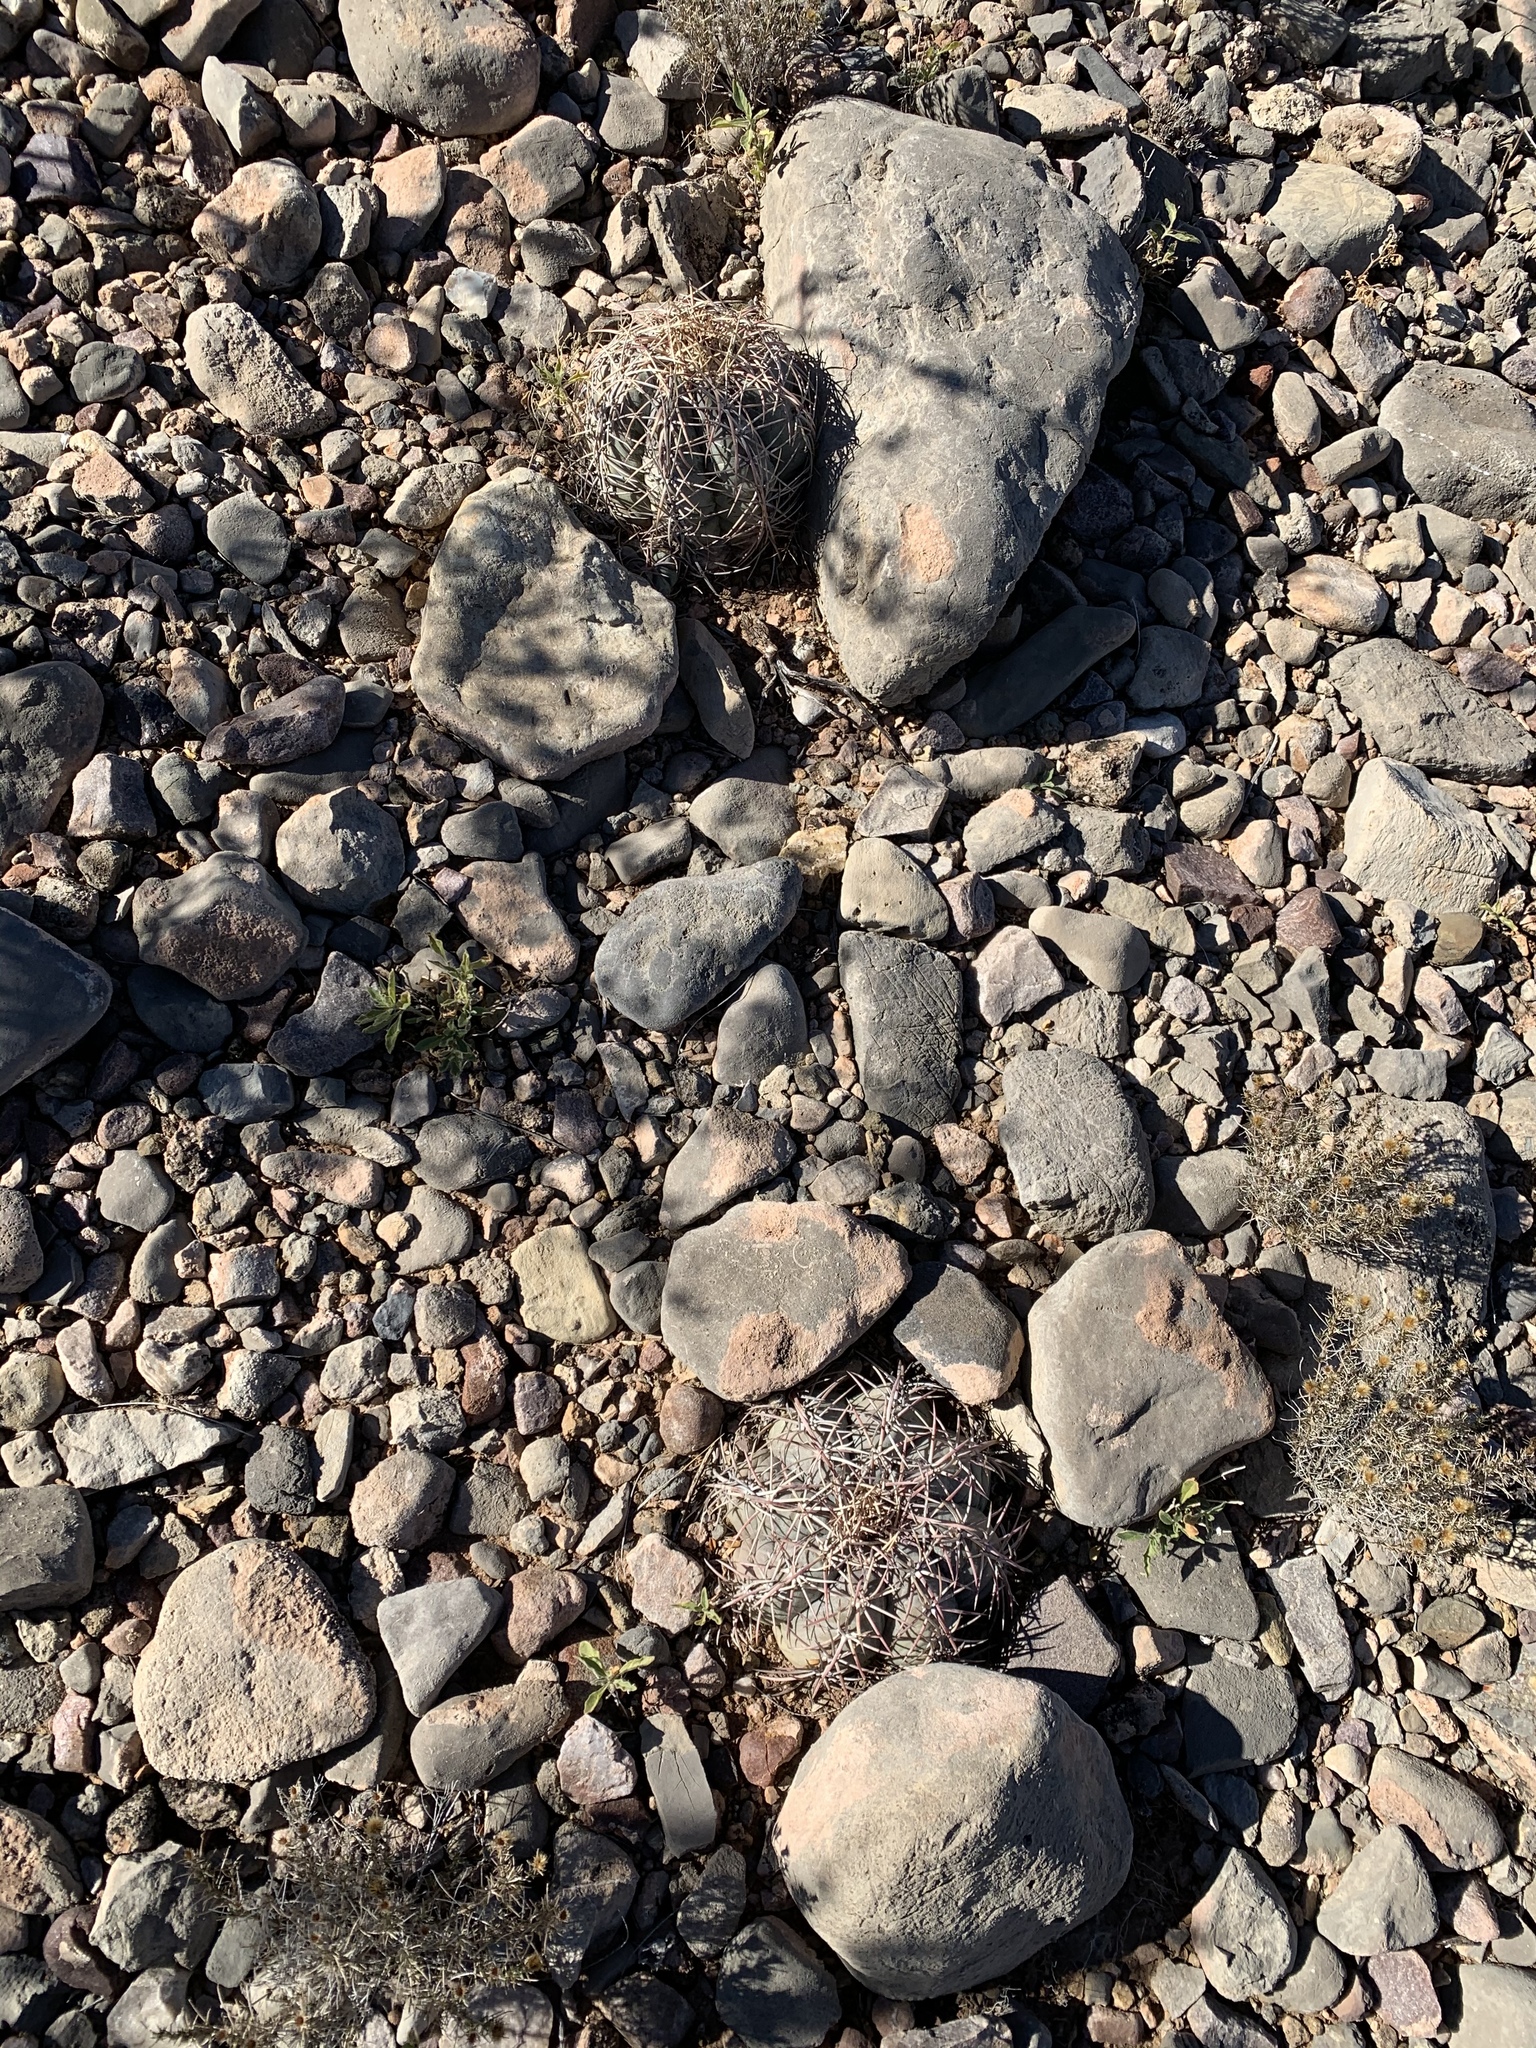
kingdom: Plantae
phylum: Tracheophyta
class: Magnoliopsida
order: Caryophyllales
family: Cactaceae
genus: Echinocactus
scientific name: Echinocactus horizonthalonius
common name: Devilshead
